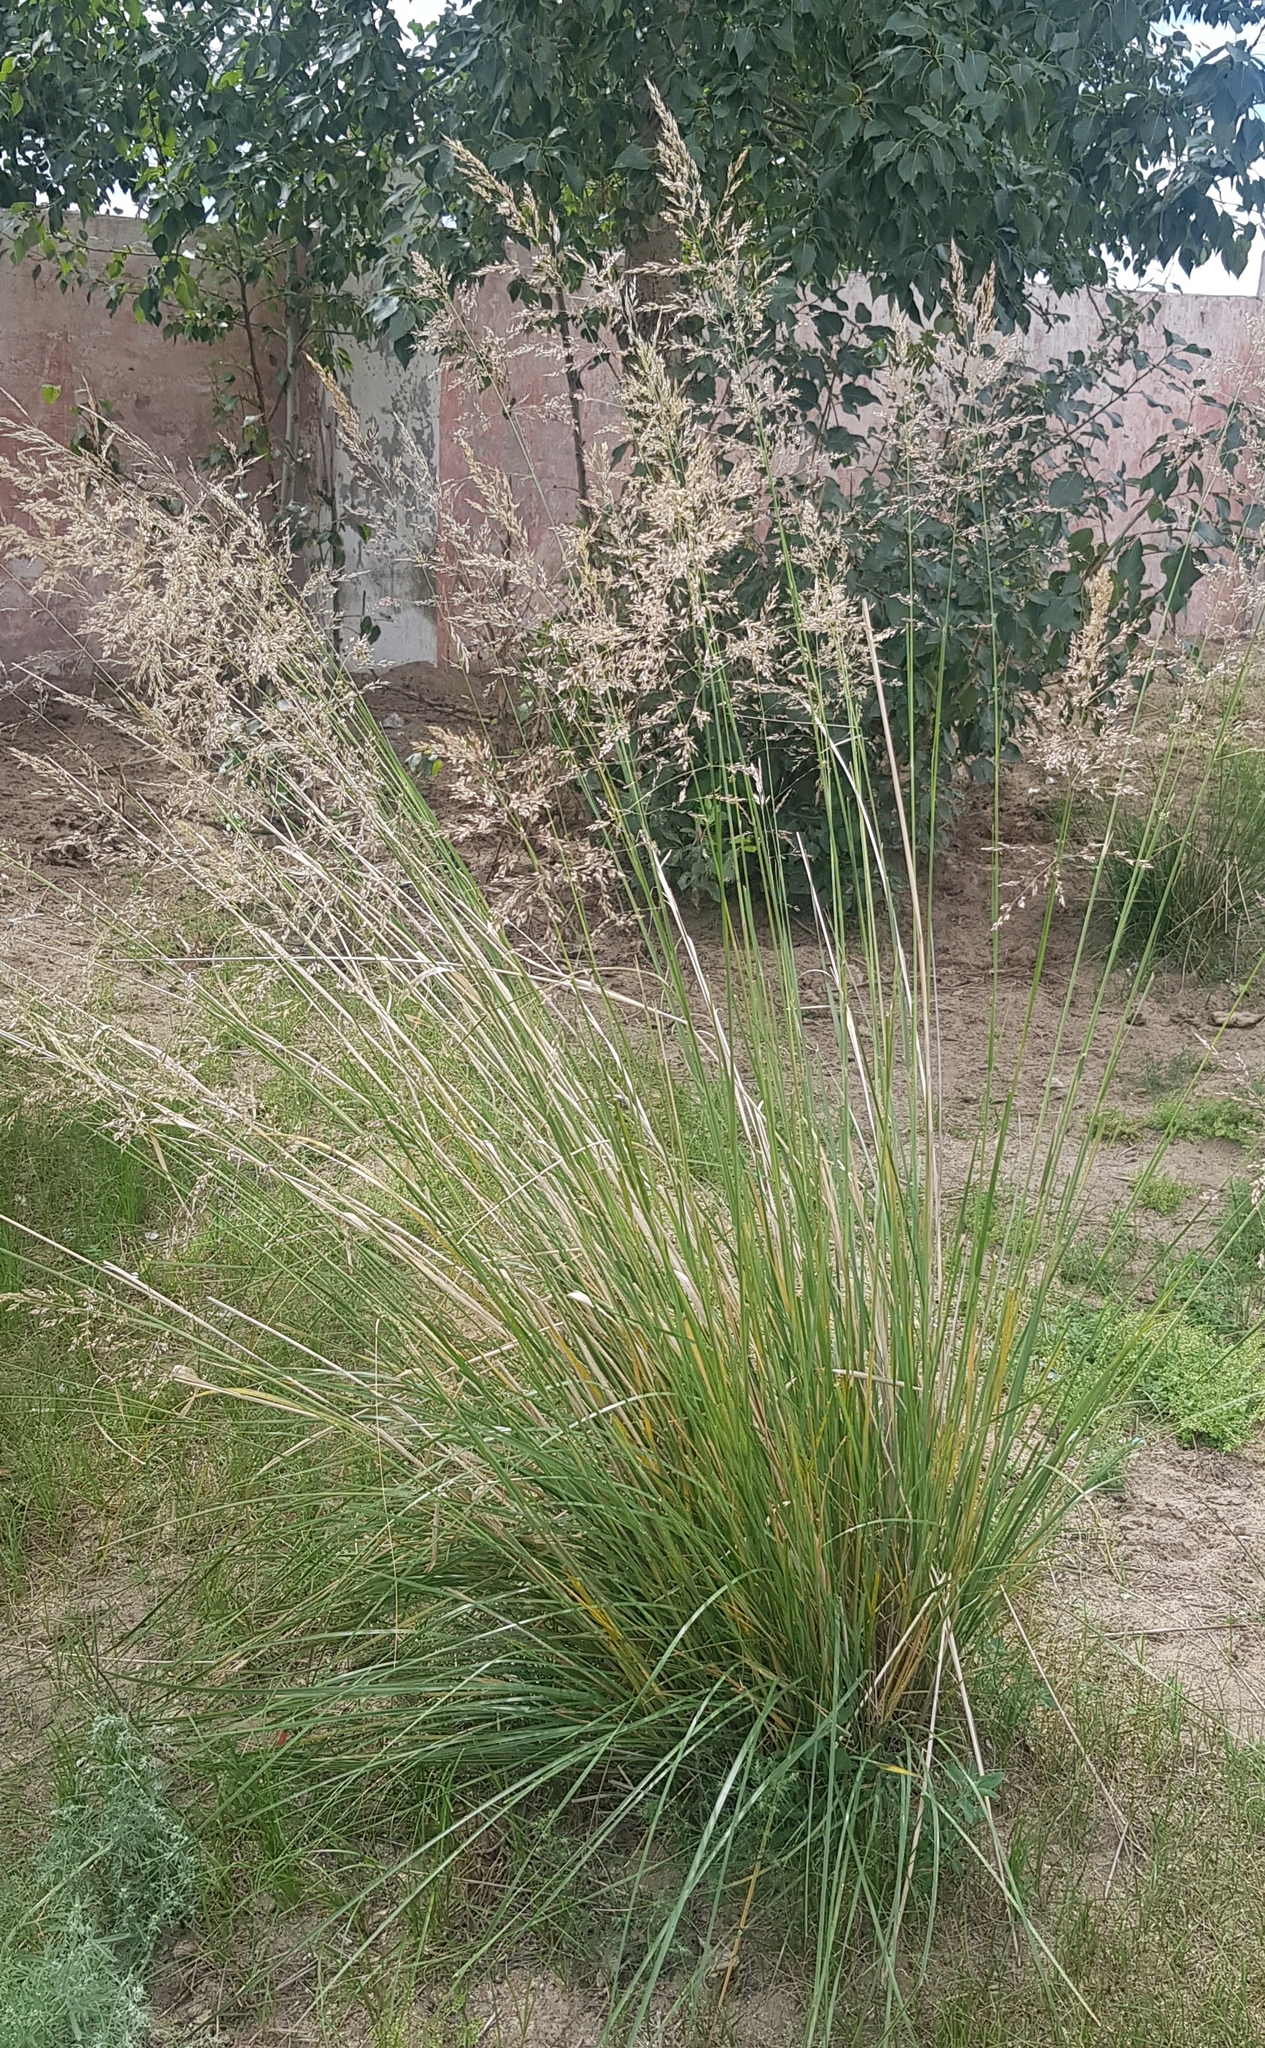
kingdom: Plantae
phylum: Tracheophyta
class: Liliopsida
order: Poales
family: Poaceae
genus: Neotrinia
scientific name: Neotrinia splendens
